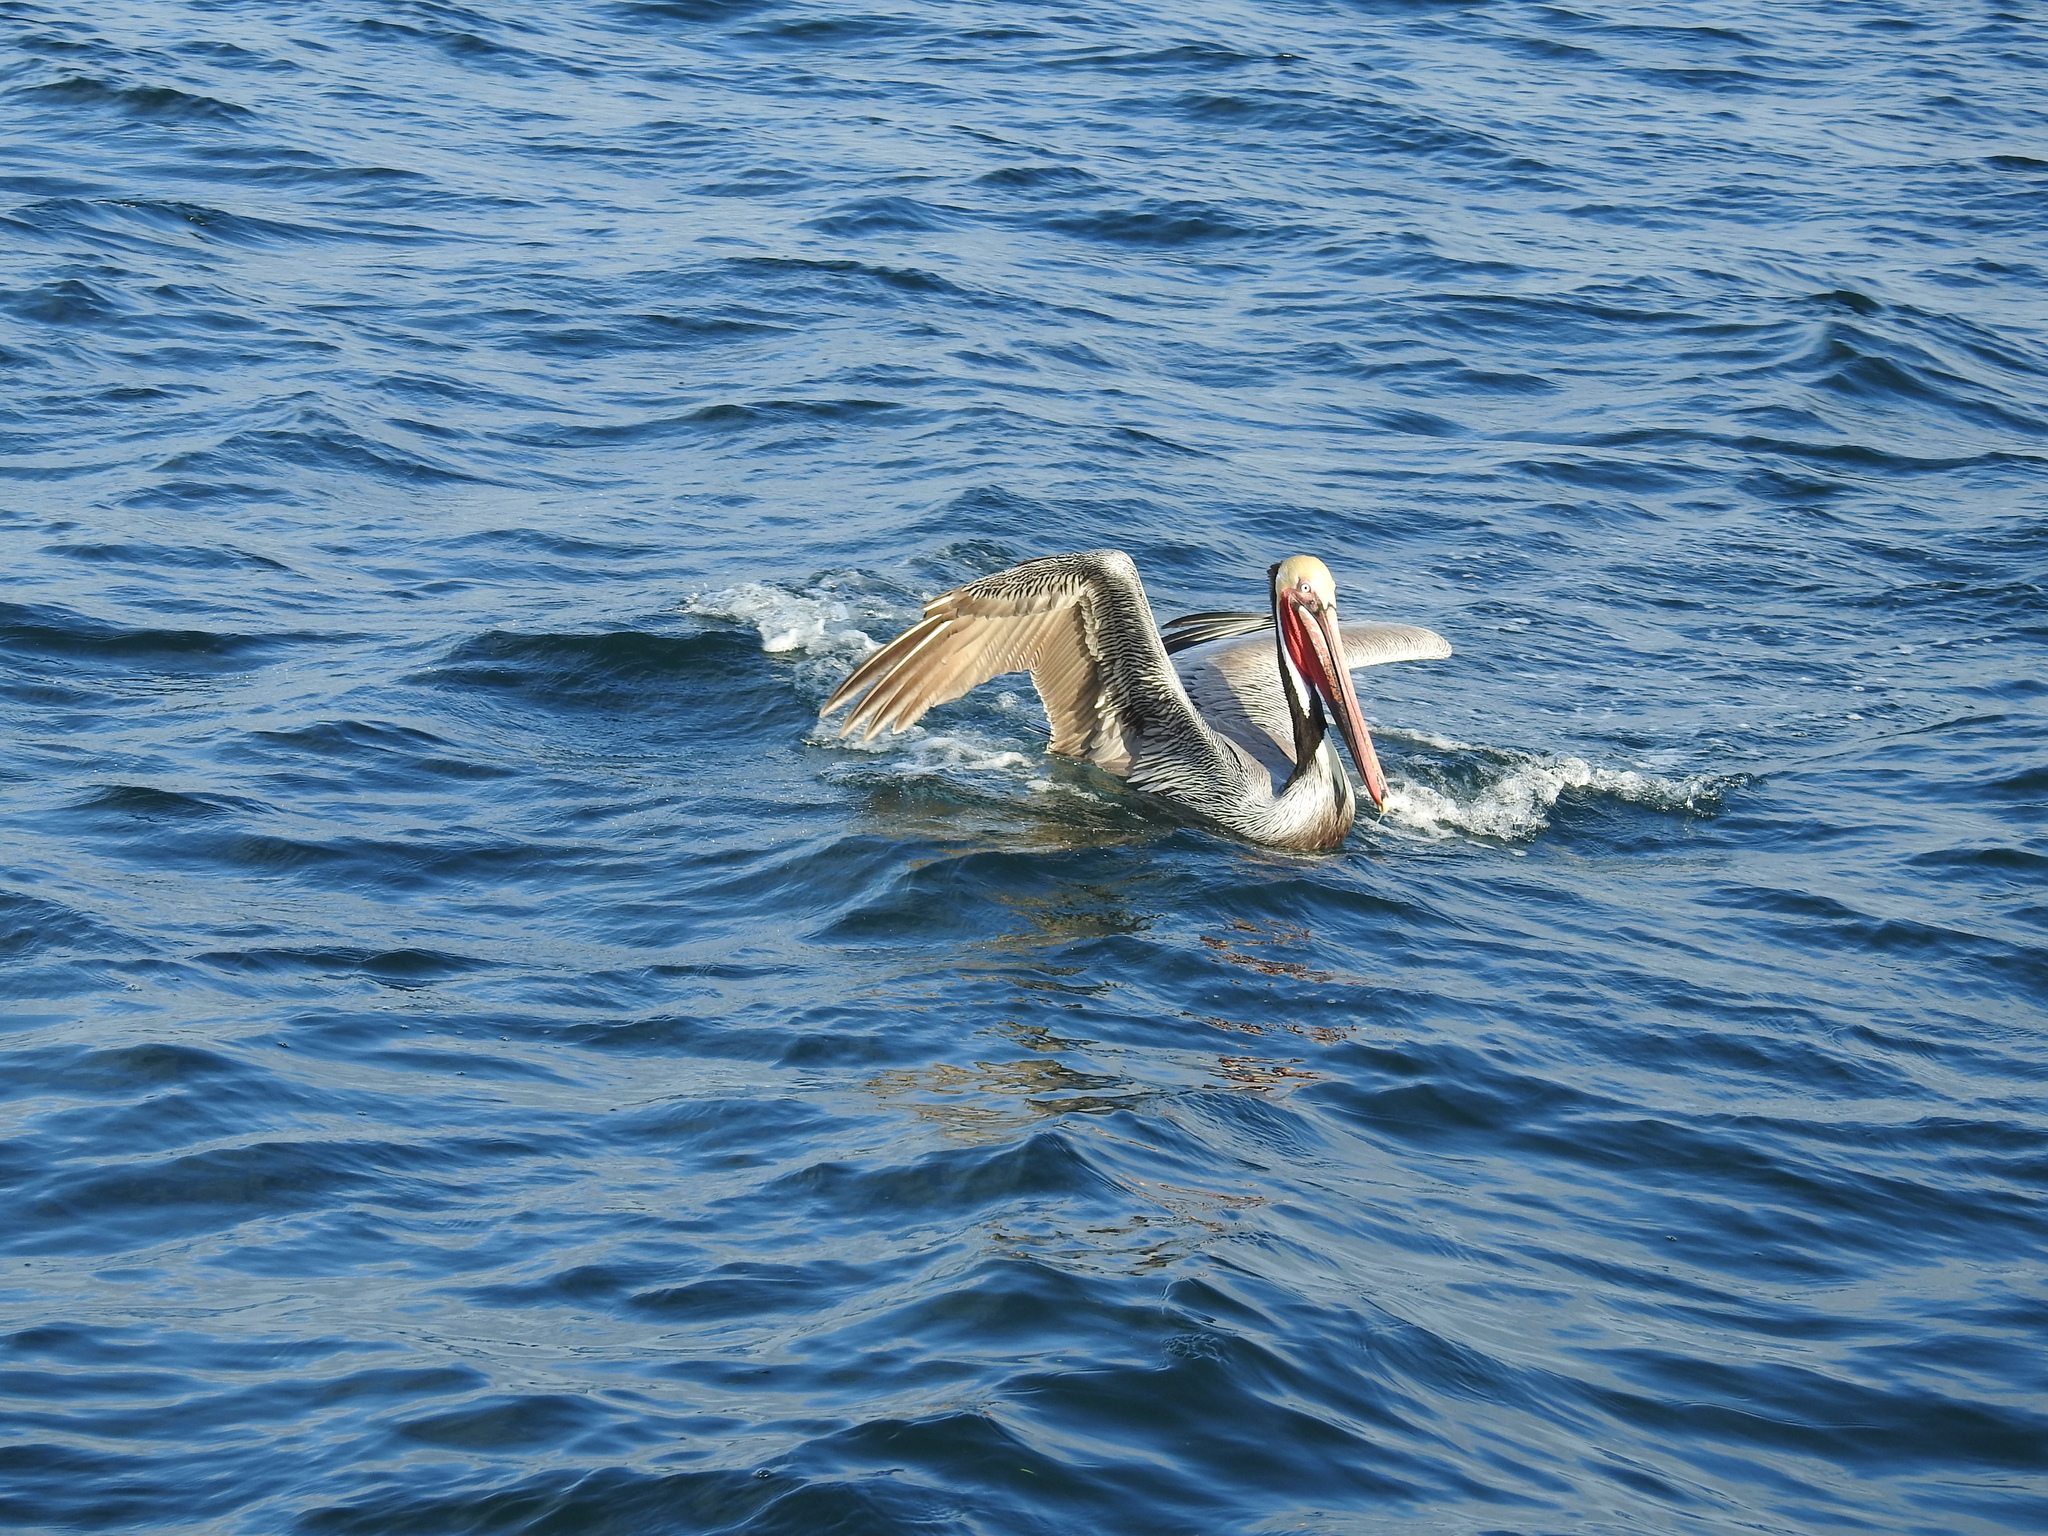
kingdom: Animalia
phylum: Chordata
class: Aves
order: Pelecaniformes
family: Pelecanidae
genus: Pelecanus
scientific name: Pelecanus occidentalis
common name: Brown pelican
